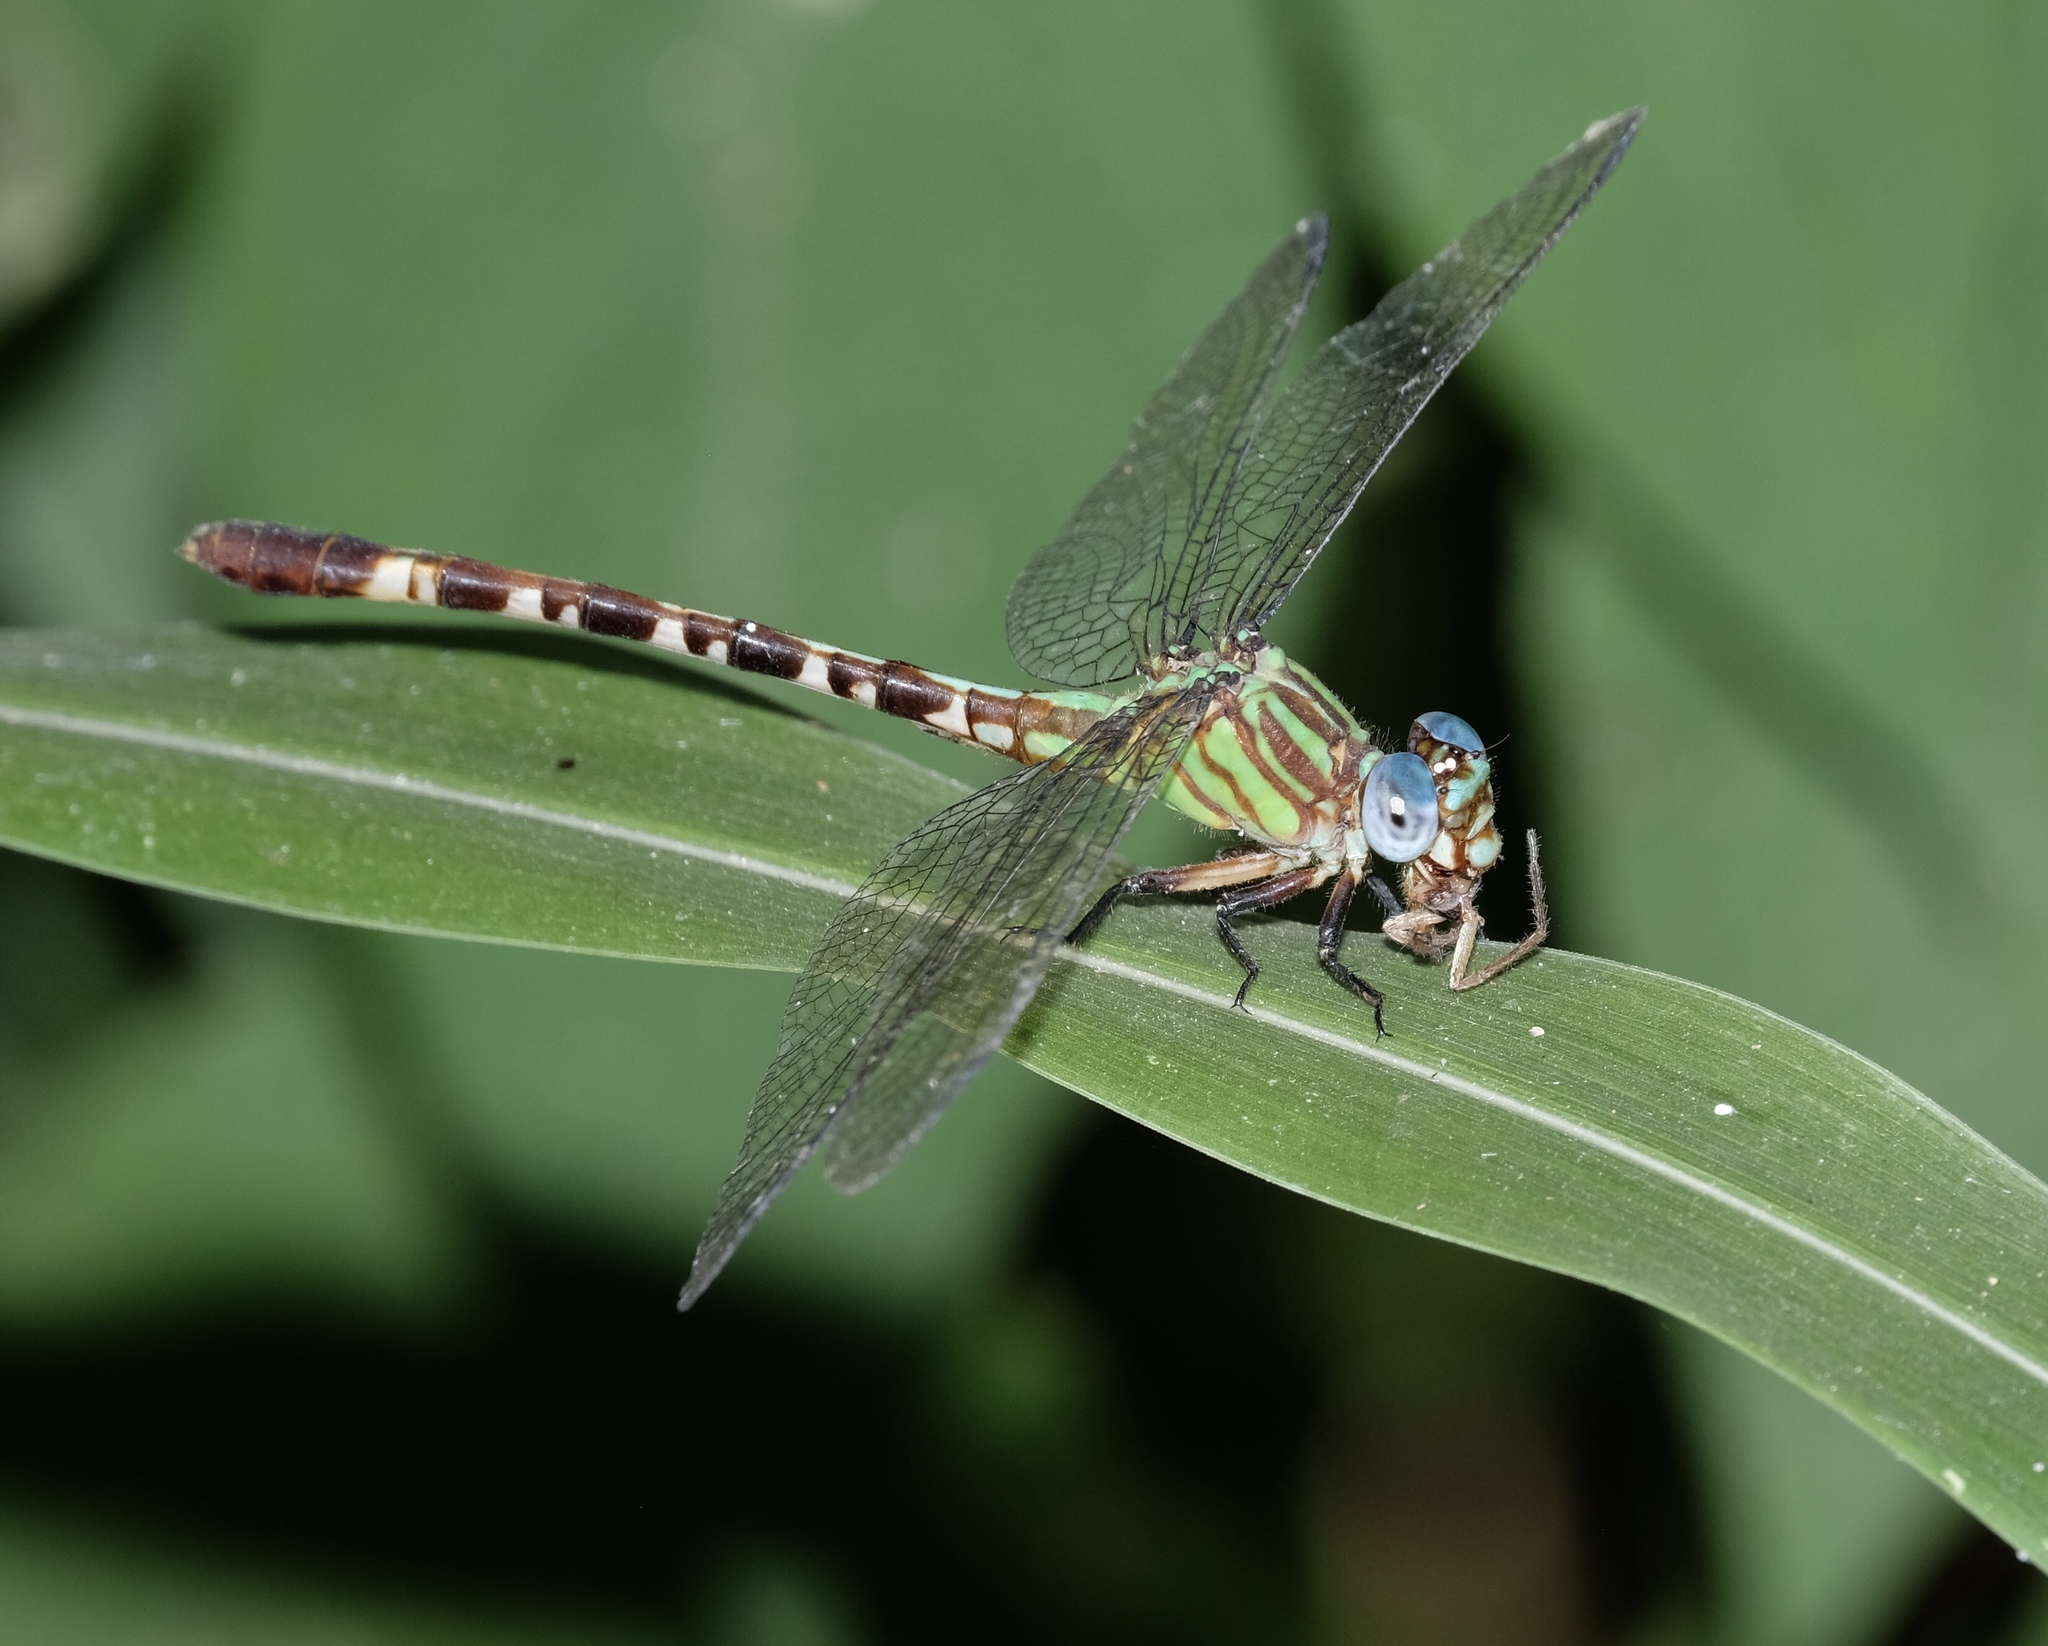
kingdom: Animalia
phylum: Arthropoda
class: Insecta
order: Odonata
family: Gomphidae
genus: Erpetogomphus
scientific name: Erpetogomphus eutainia
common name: Blue-faced ringtail
